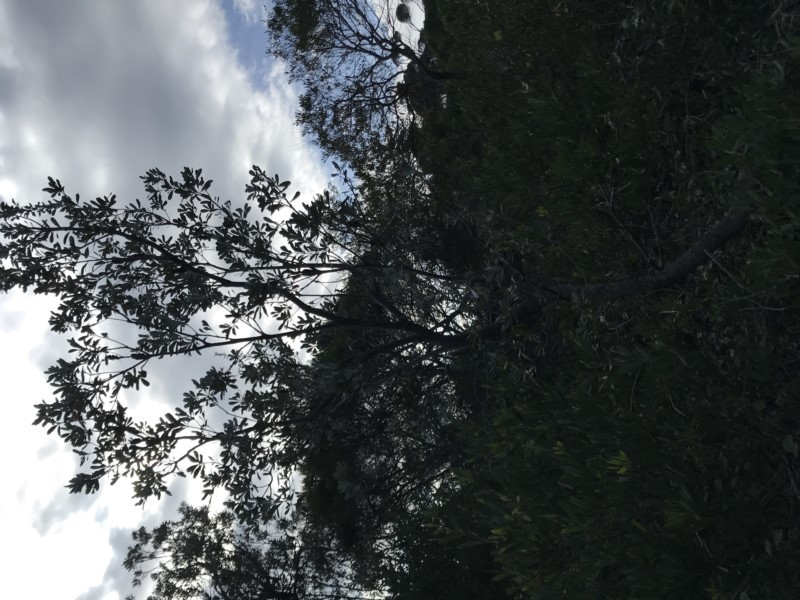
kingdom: Plantae
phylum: Tracheophyta
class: Magnoliopsida
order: Proteales
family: Proteaceae
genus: Banksia
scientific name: Banksia integrifolia
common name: White-honeysuckle
